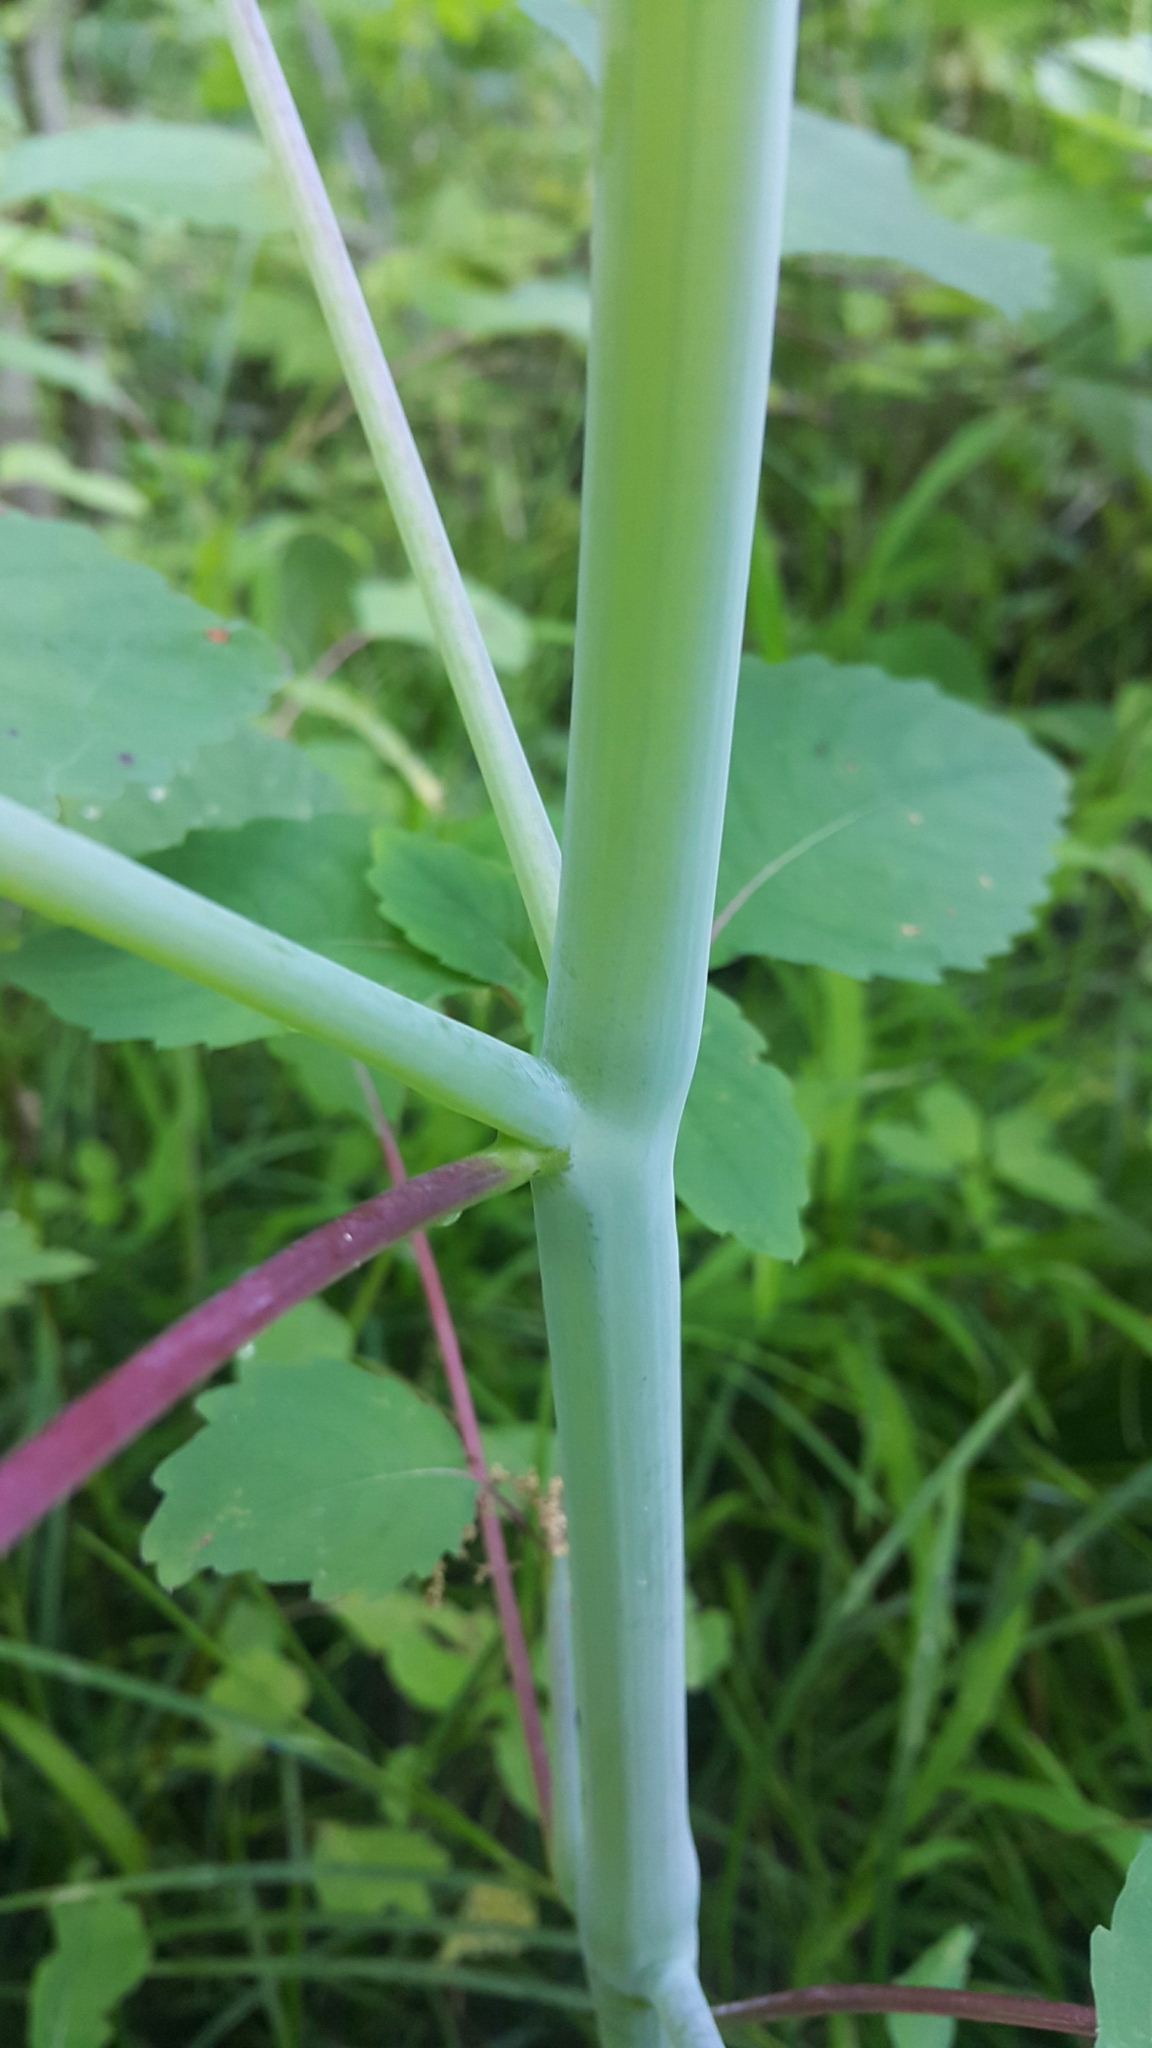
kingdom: Plantae
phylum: Tracheophyta
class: Magnoliopsida
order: Ericales
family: Balsaminaceae
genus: Impatiens
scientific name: Impatiens pallida
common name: Pale snapweed
